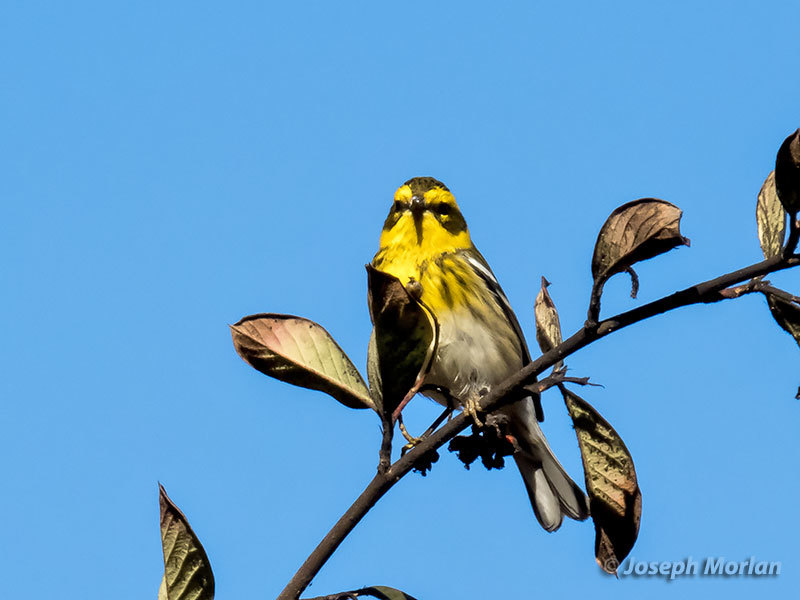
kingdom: Animalia
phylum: Chordata
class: Aves
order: Passeriformes
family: Parulidae
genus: Setophaga
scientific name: Setophaga townsendi
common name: Townsend's warbler
